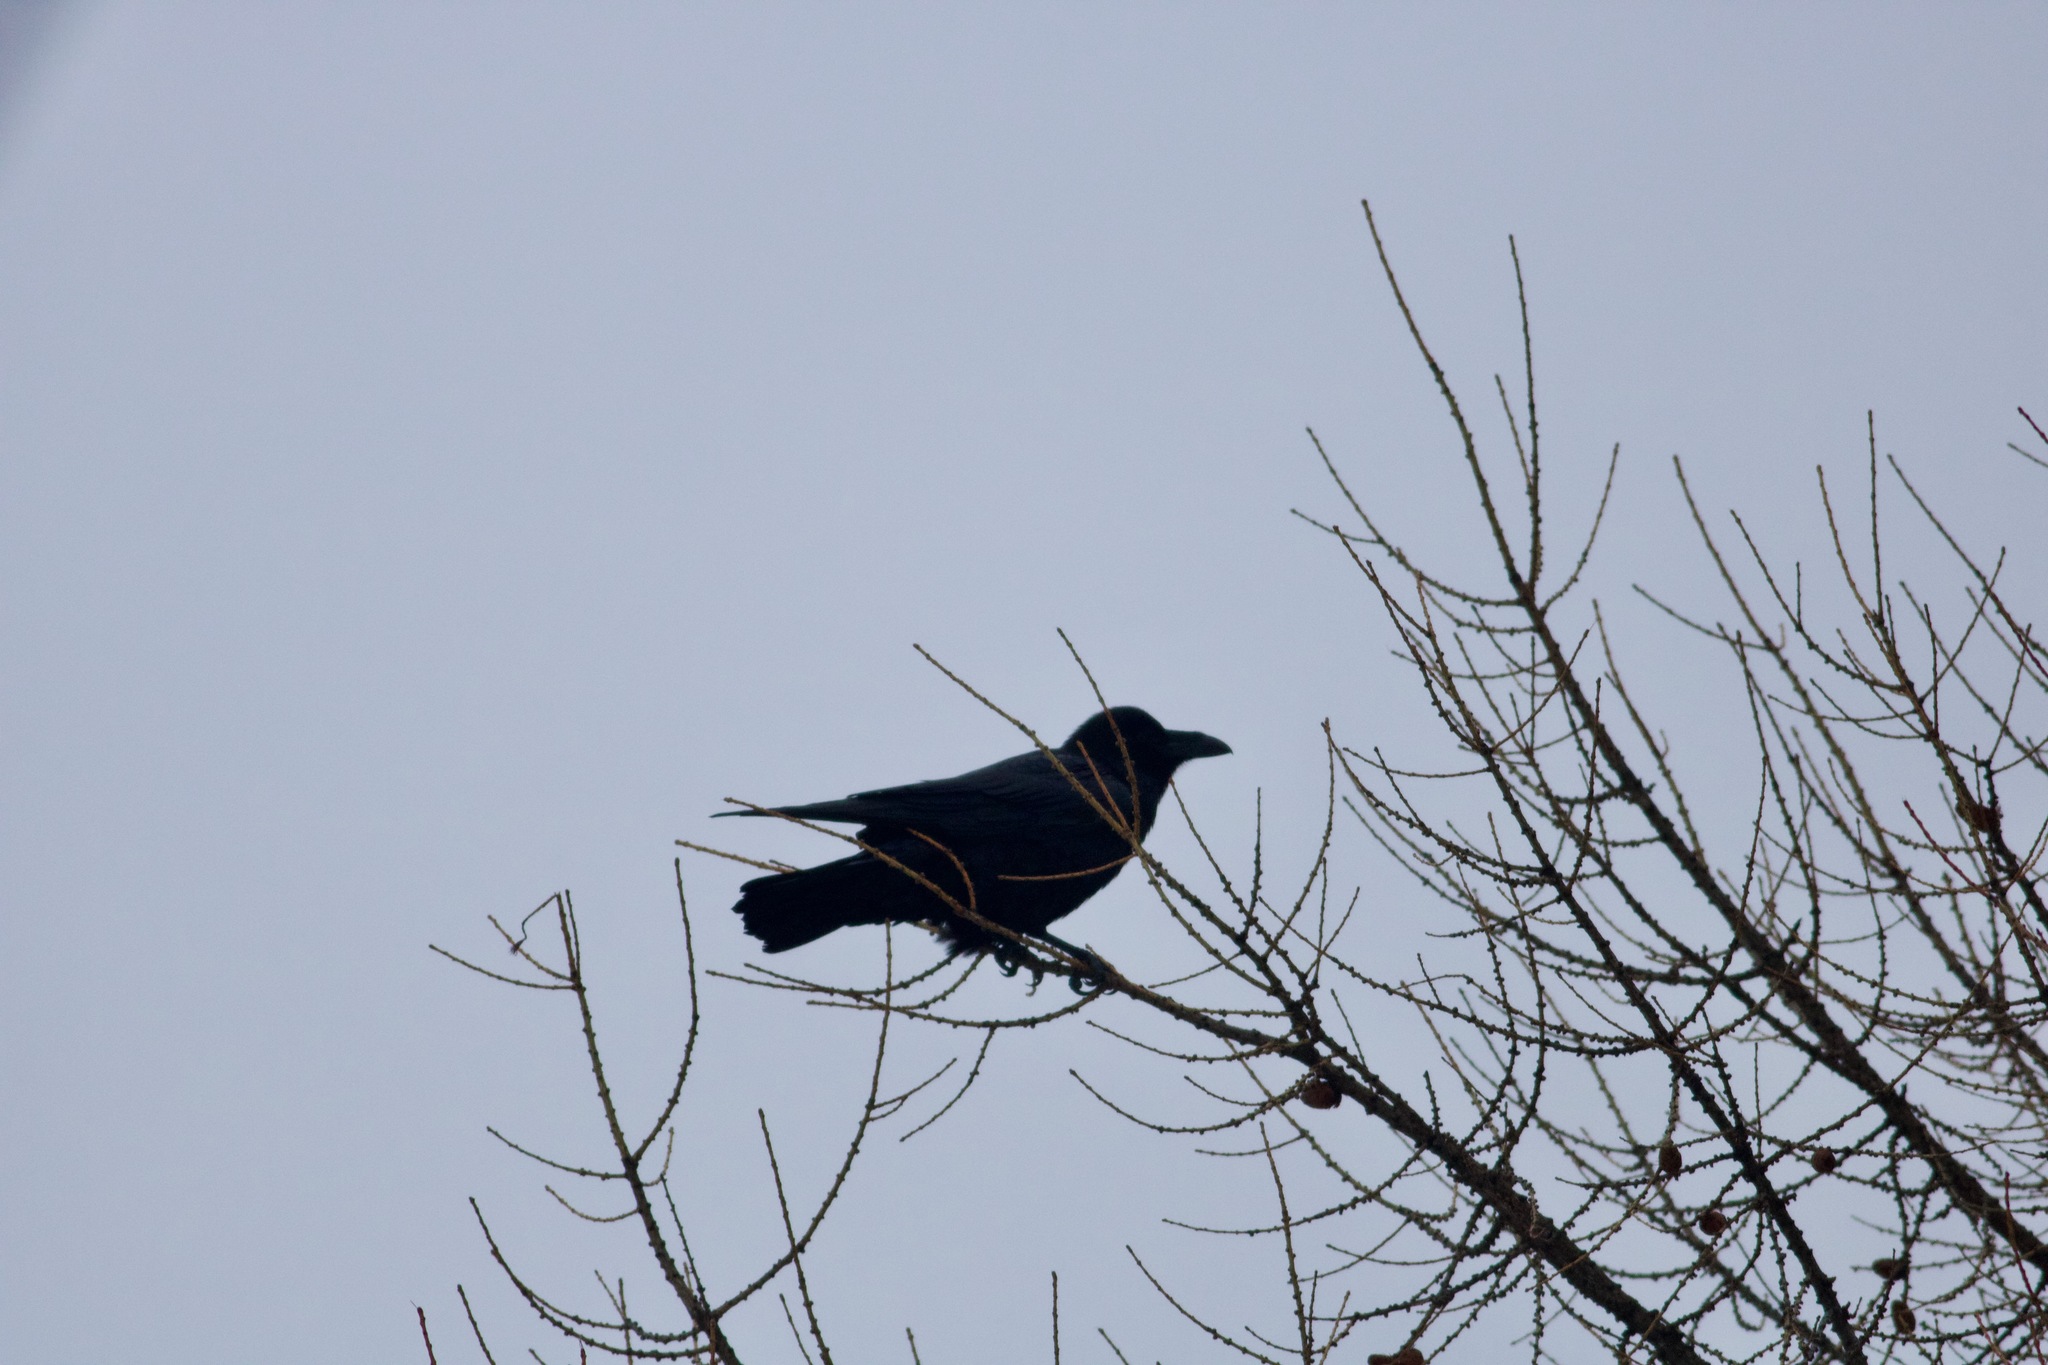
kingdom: Animalia
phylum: Chordata
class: Aves
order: Passeriformes
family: Corvidae
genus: Corvus
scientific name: Corvus corax
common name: Common raven
